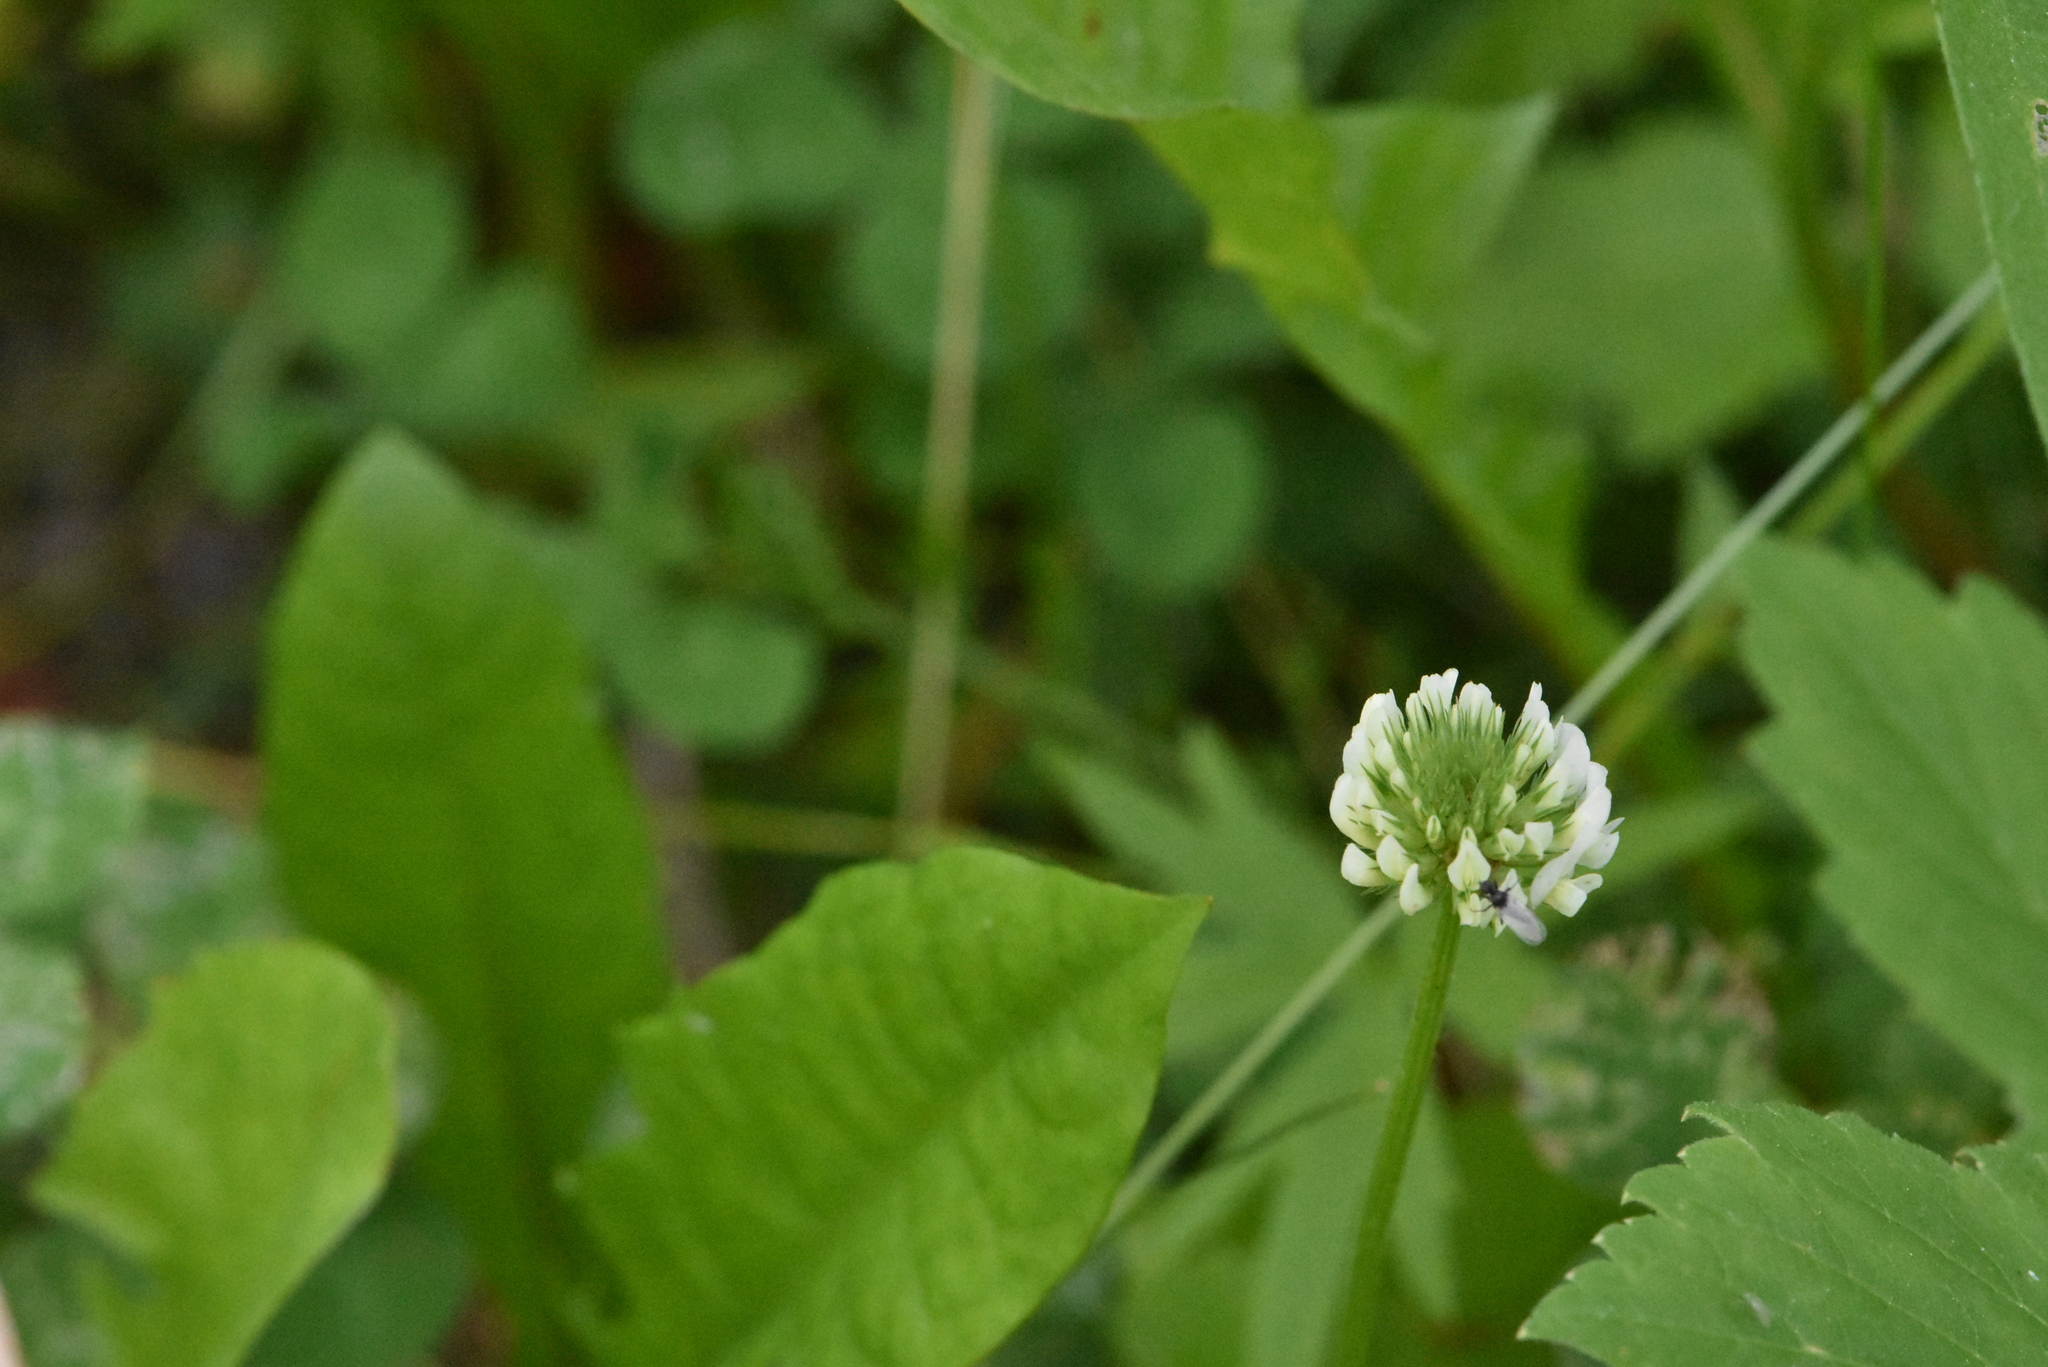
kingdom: Plantae
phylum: Tracheophyta
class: Magnoliopsida
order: Fabales
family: Fabaceae
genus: Trifolium
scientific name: Trifolium repens
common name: White clover
